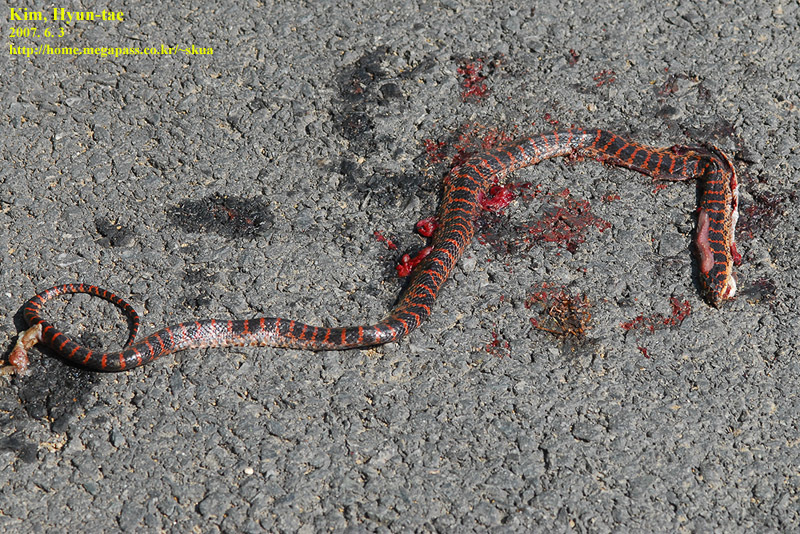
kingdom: Animalia
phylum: Chordata
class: Squamata
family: Colubridae
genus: Lycodon
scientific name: Lycodon rufozonatus
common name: Red-banded snake
